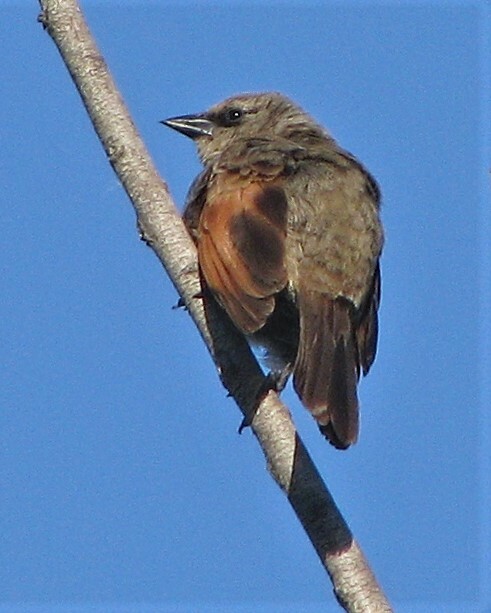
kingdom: Animalia
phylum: Chordata
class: Aves
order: Passeriformes
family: Icteridae
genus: Agelaioides
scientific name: Agelaioides badius
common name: Baywing
